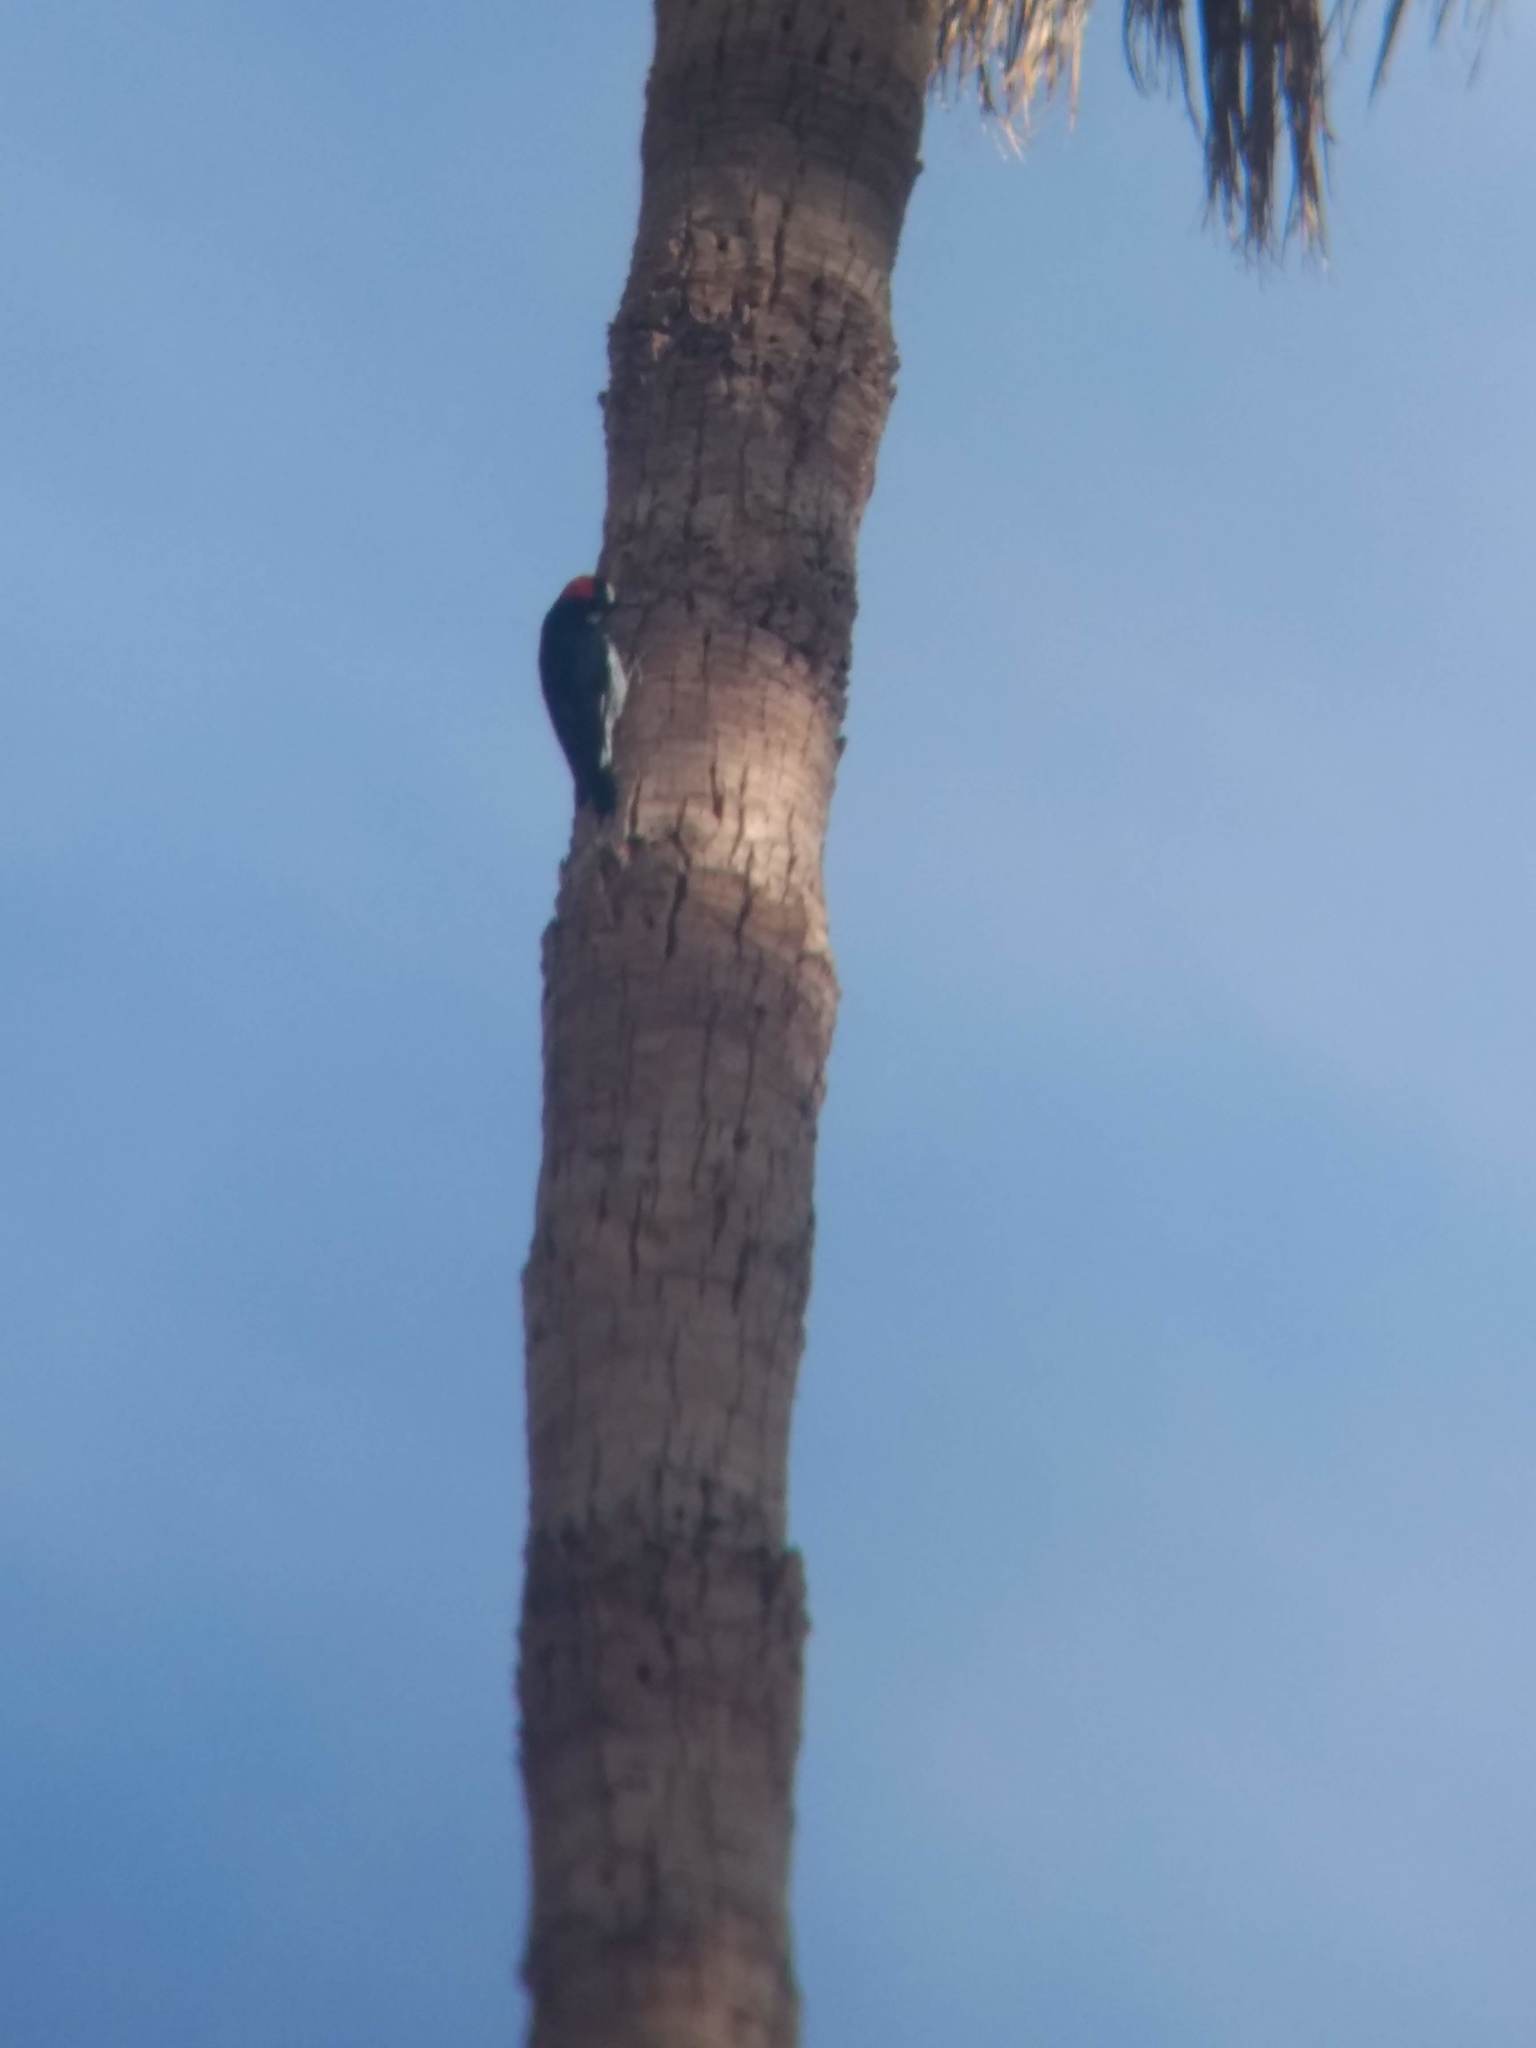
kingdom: Animalia
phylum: Chordata
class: Aves
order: Piciformes
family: Picidae
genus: Melanerpes
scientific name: Melanerpes formicivorus
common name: Acorn woodpecker
